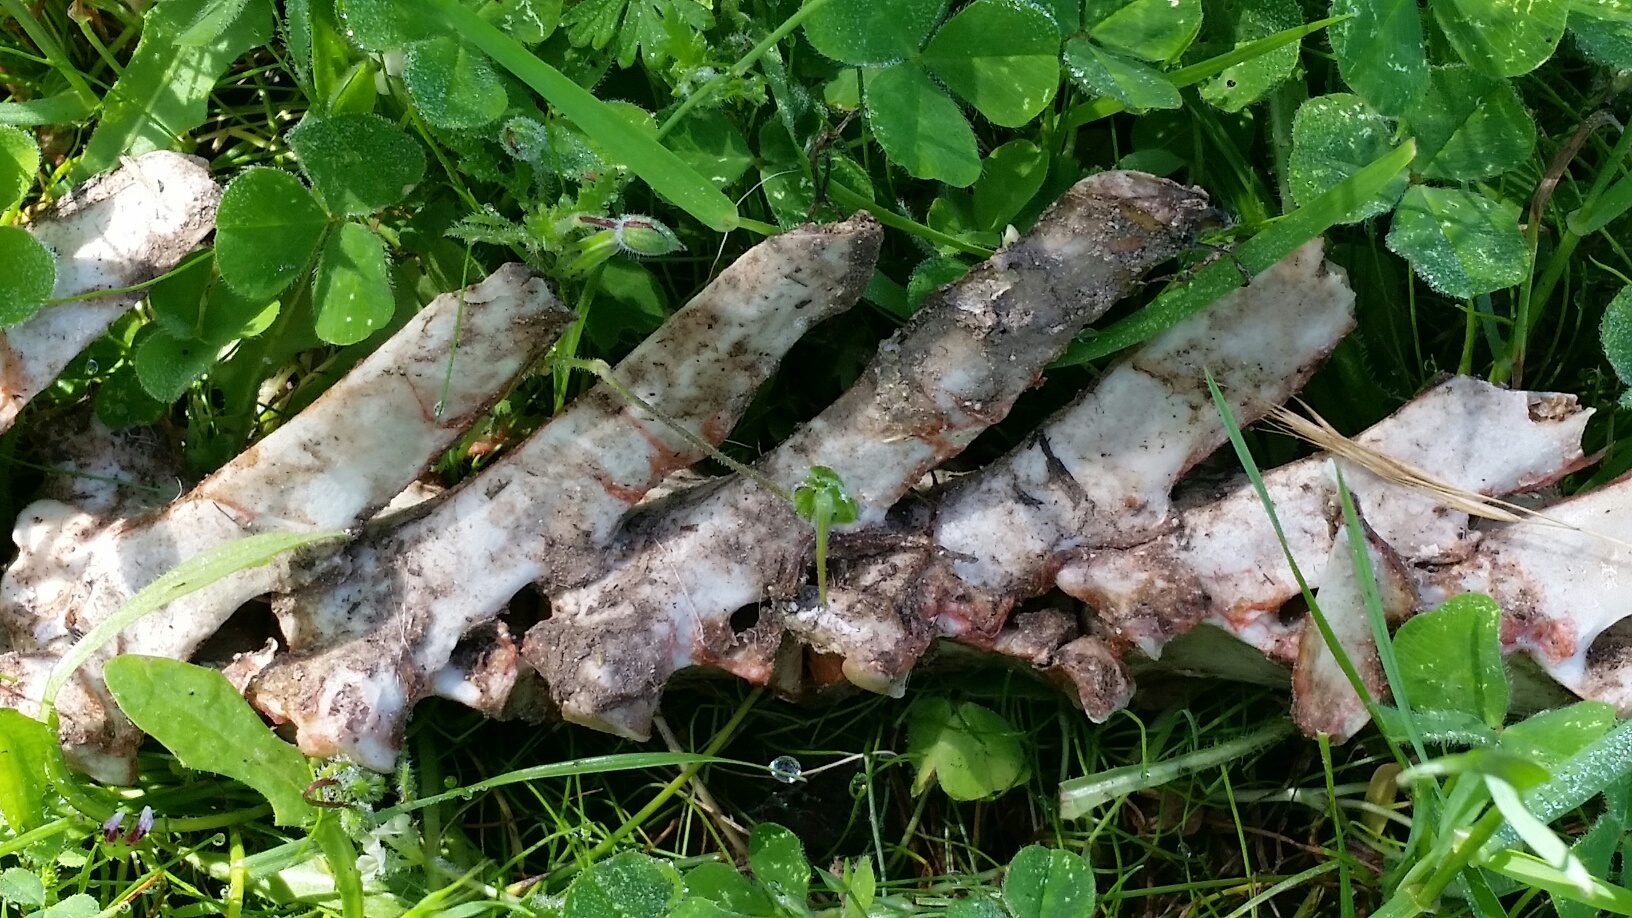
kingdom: Animalia
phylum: Chordata
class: Mammalia
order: Artiodactyla
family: Cervidae
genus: Odocoileus
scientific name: Odocoileus hemionus
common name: Mule deer
